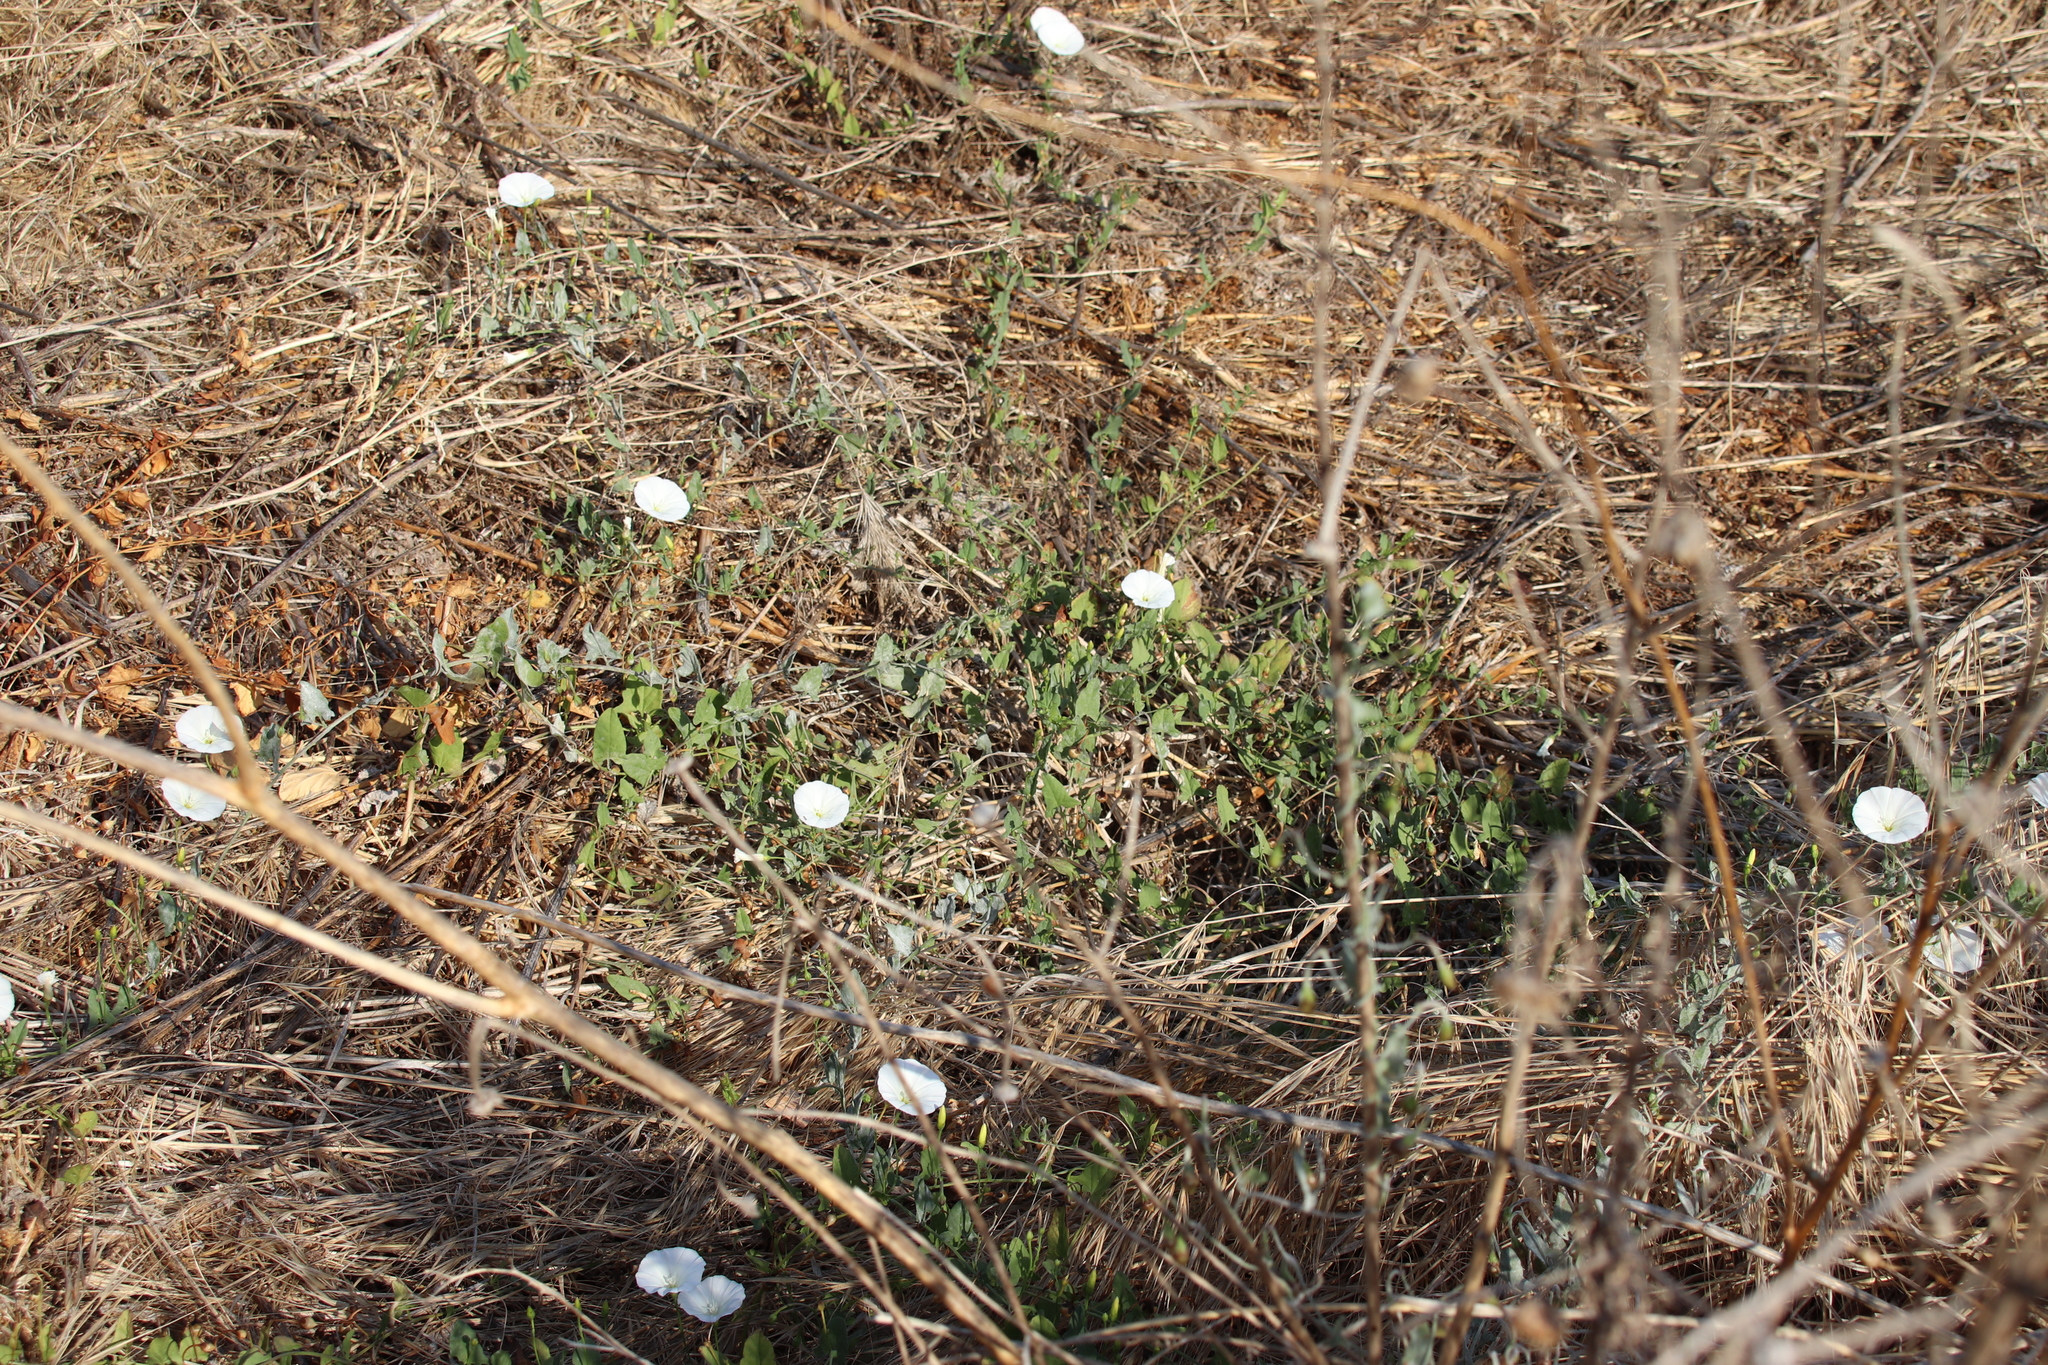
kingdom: Plantae
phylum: Tracheophyta
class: Magnoliopsida
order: Solanales
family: Convolvulaceae
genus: Convolvulus
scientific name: Convolvulus arvensis
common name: Field bindweed
